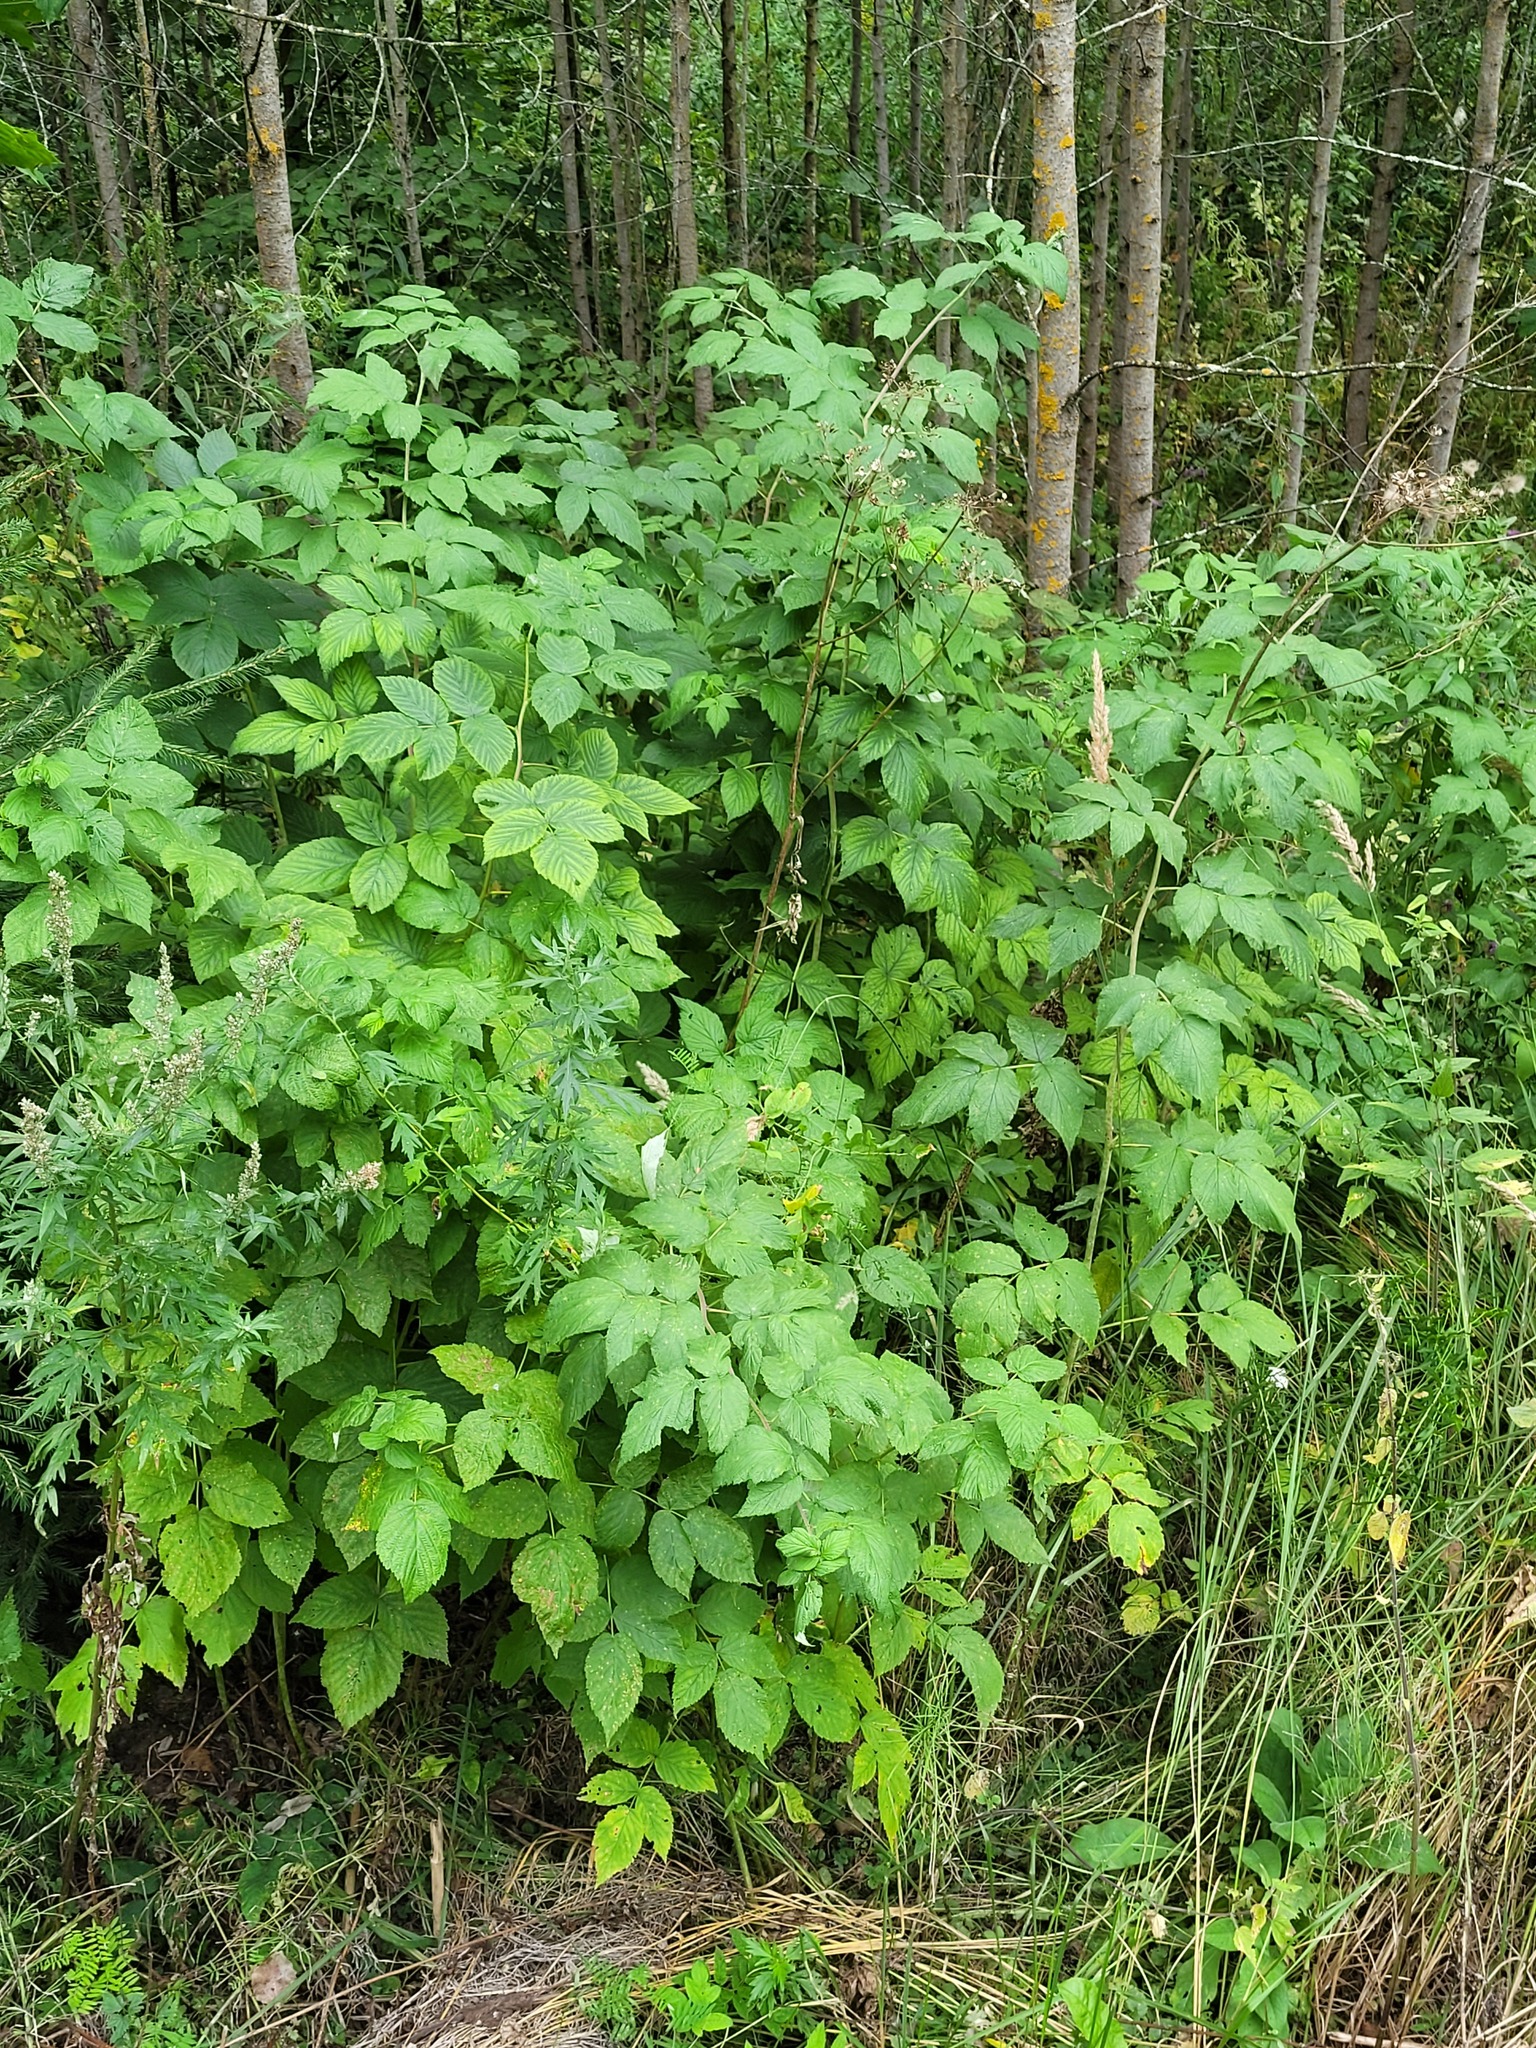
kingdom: Plantae
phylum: Tracheophyta
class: Magnoliopsida
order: Rosales
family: Rosaceae
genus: Rubus
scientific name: Rubus idaeus
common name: Raspberry
